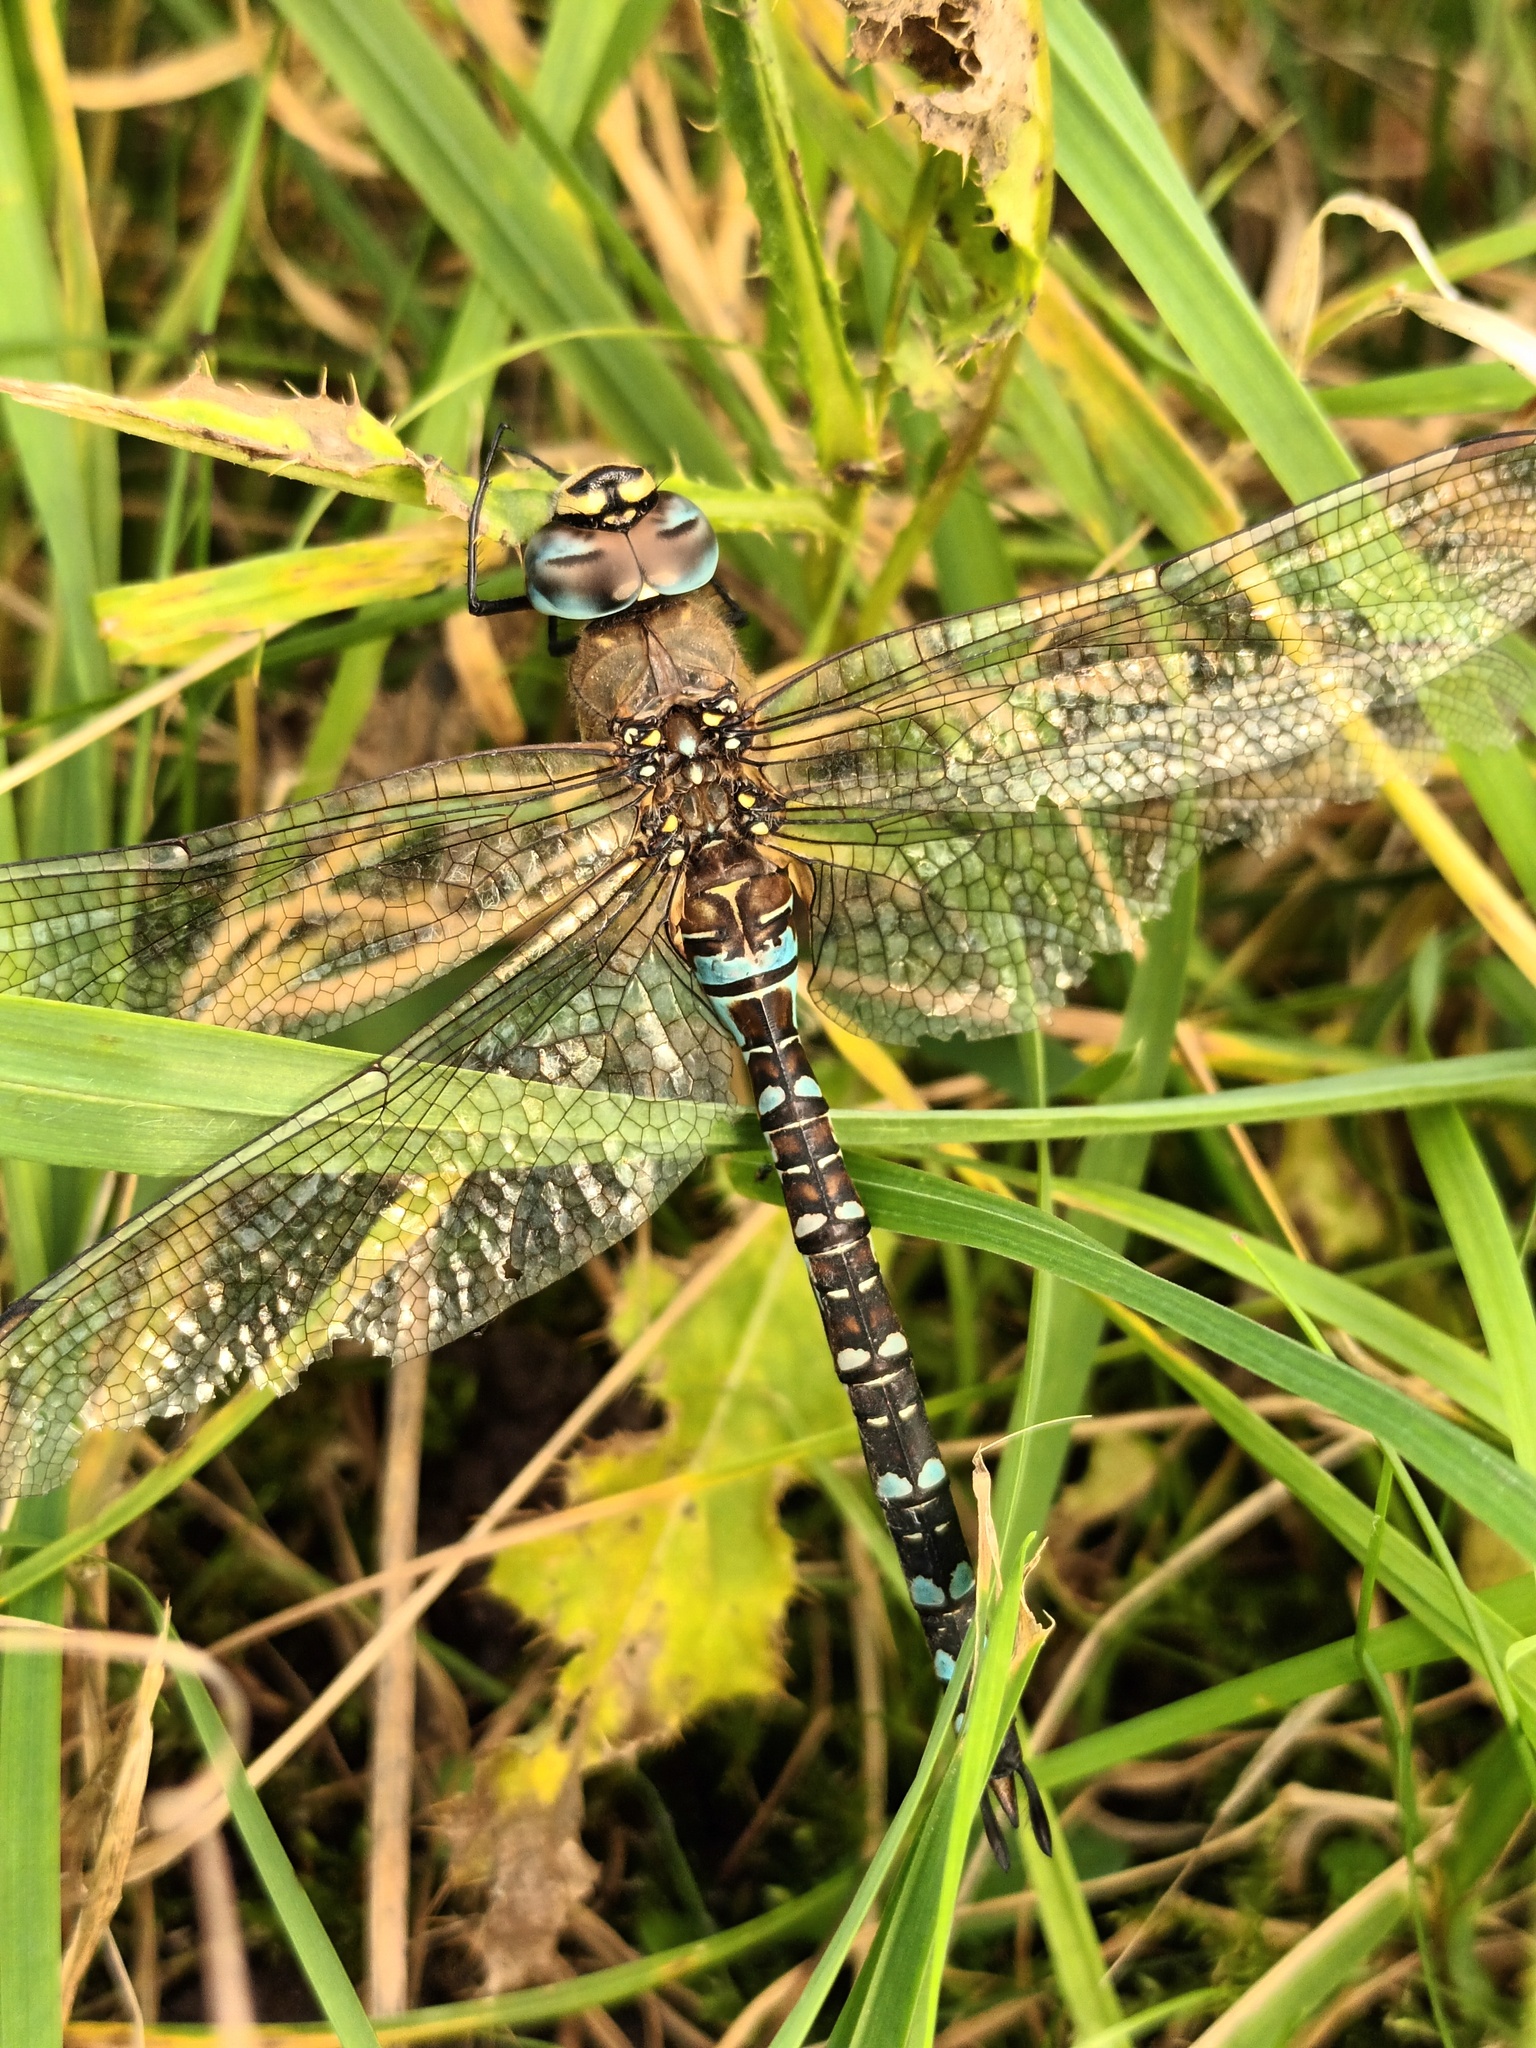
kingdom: Animalia
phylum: Arthropoda
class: Insecta
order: Odonata
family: Aeshnidae
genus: Aeshna
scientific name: Aeshna mixta
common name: Migrant hawker
